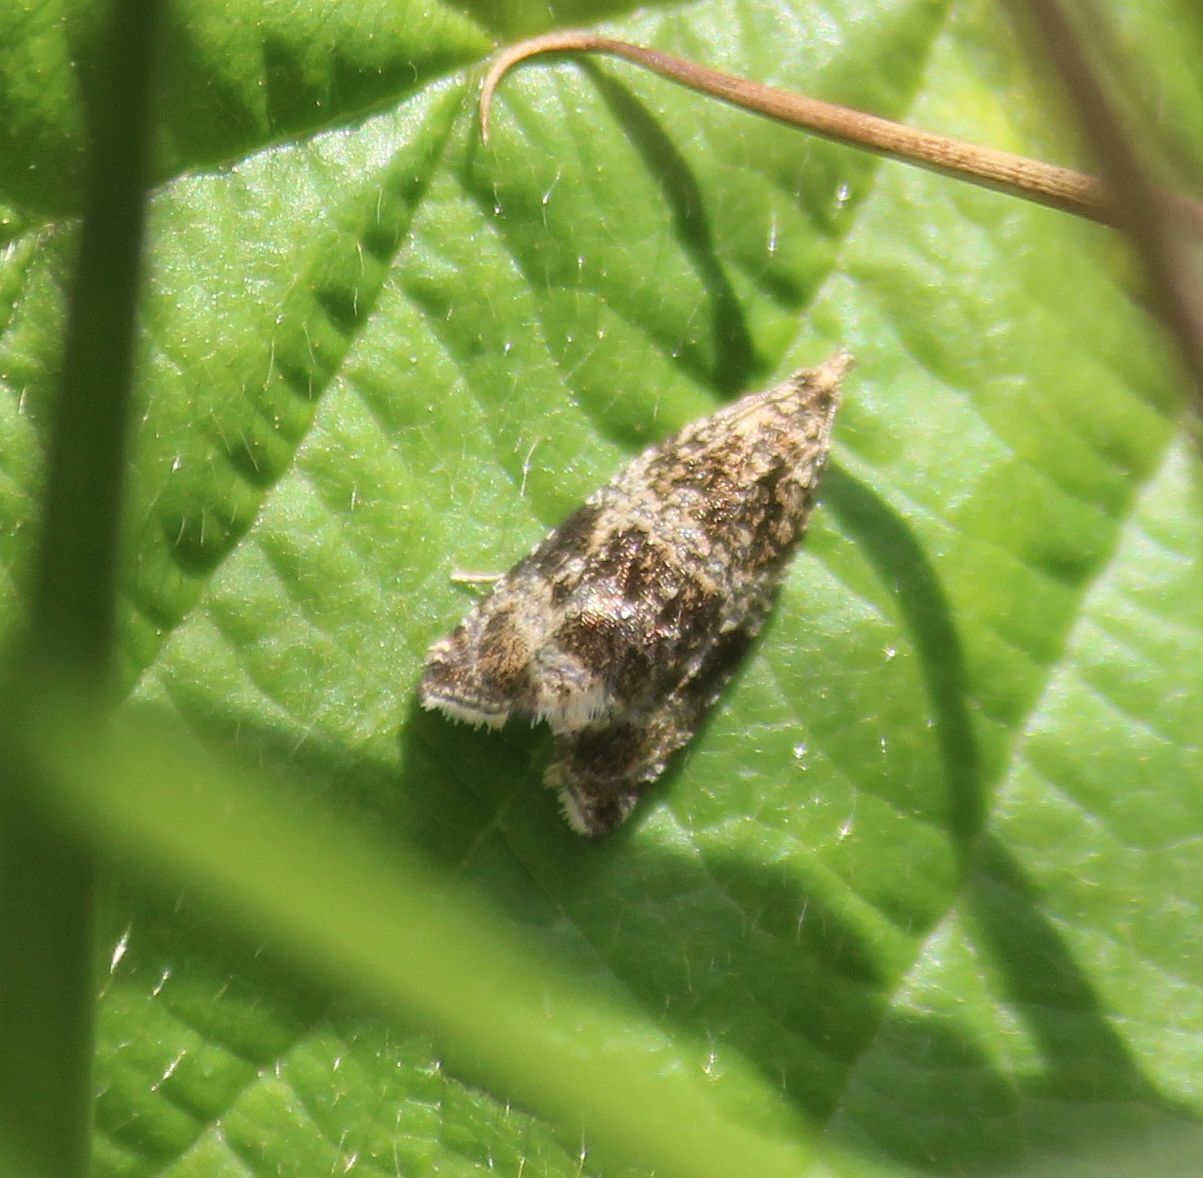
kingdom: Animalia
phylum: Arthropoda
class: Insecta
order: Lepidoptera
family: Tortricidae
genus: Syricoris
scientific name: Syricoris lacunana
